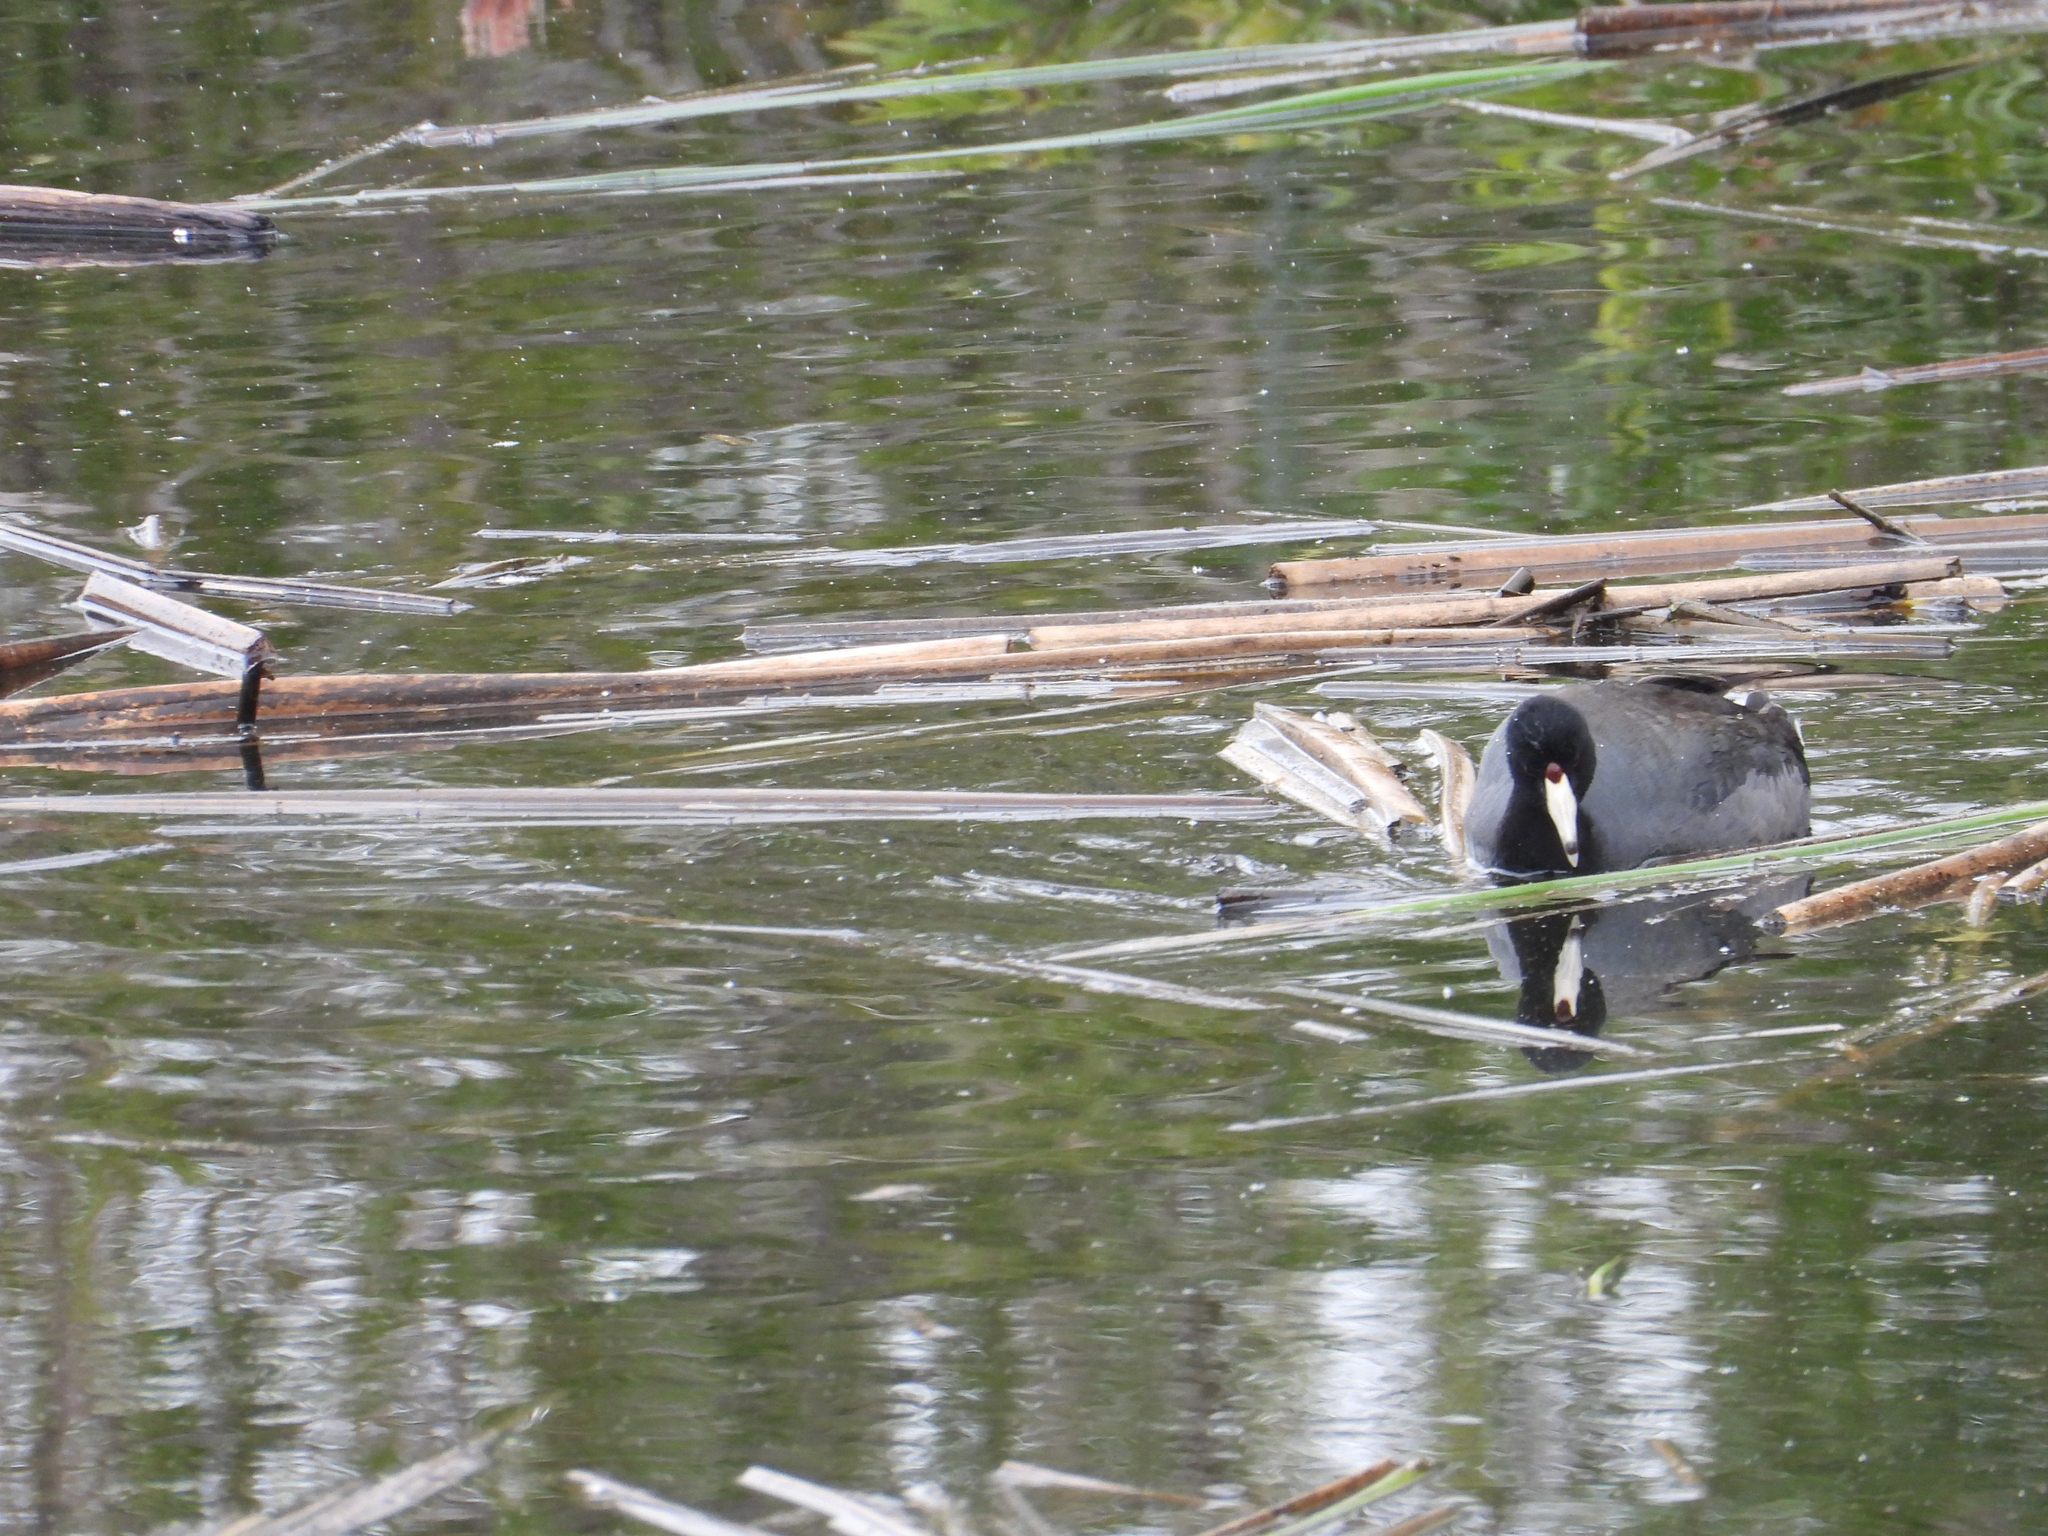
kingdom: Animalia
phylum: Chordata
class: Aves
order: Gruiformes
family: Rallidae
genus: Fulica
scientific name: Fulica americana
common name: American coot
